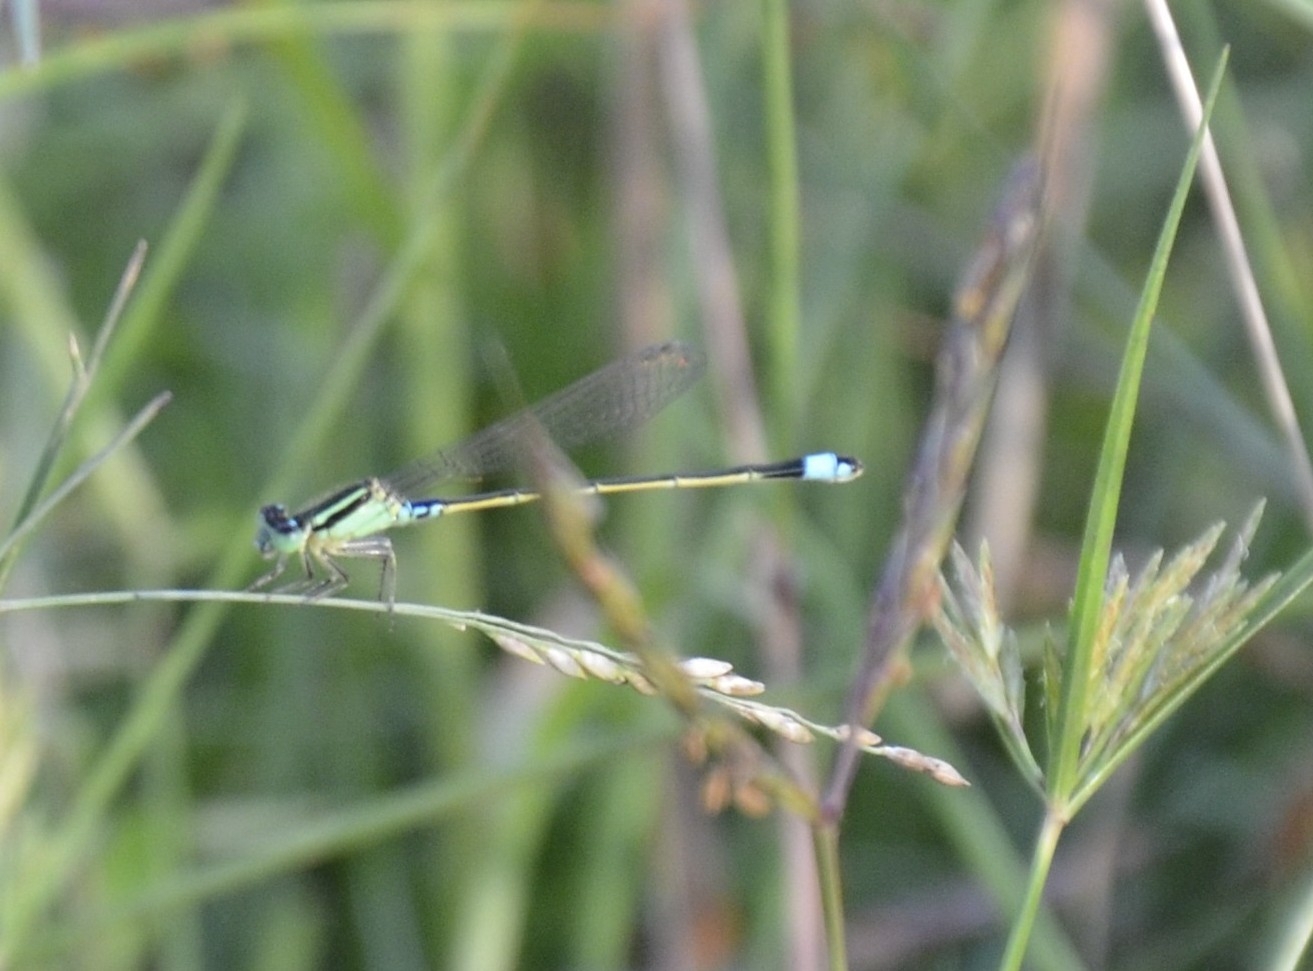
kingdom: Animalia
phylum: Arthropoda
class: Insecta
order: Odonata
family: Coenagrionidae
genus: Ischnura
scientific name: Ischnura senegalensis
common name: Tropical bluetail
